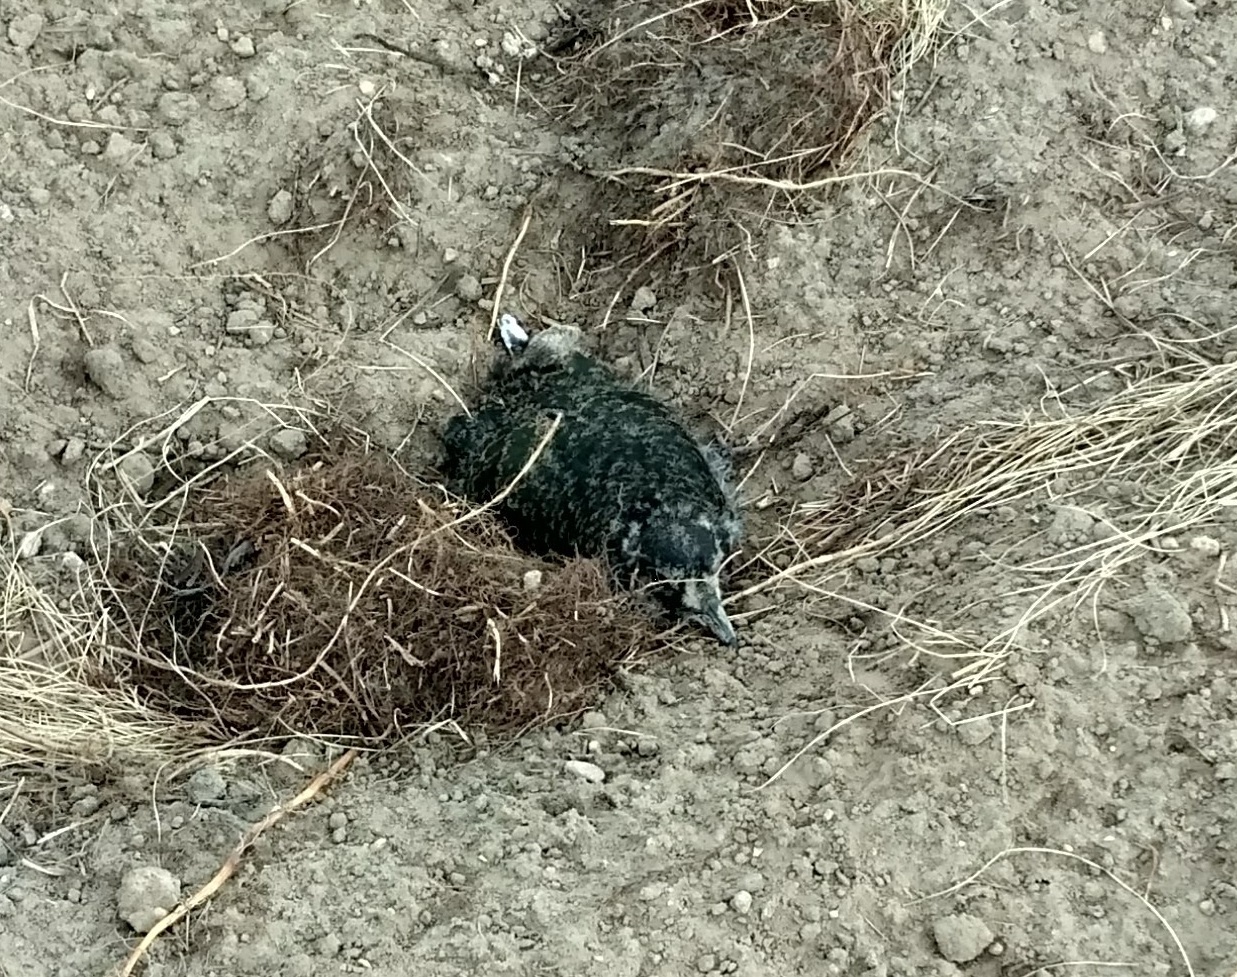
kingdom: Animalia
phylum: Chordata
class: Aves
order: Charadriiformes
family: Charadriidae
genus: Vanellus
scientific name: Vanellus vanellus
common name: Northern lapwing
